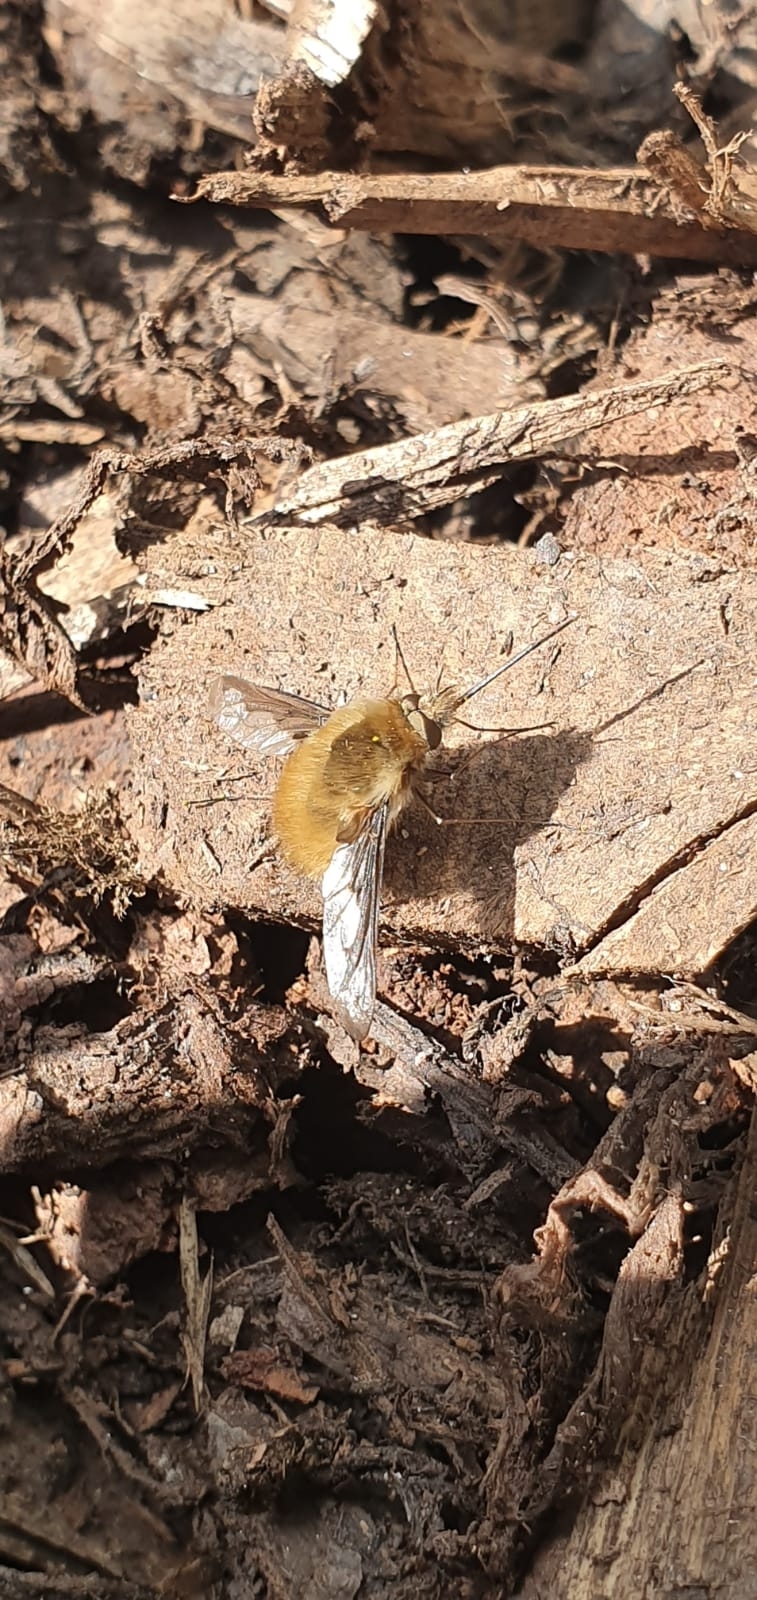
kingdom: Animalia
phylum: Arthropoda
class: Insecta
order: Diptera
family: Bombyliidae
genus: Bombylius
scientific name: Bombylius major
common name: Bee fly
